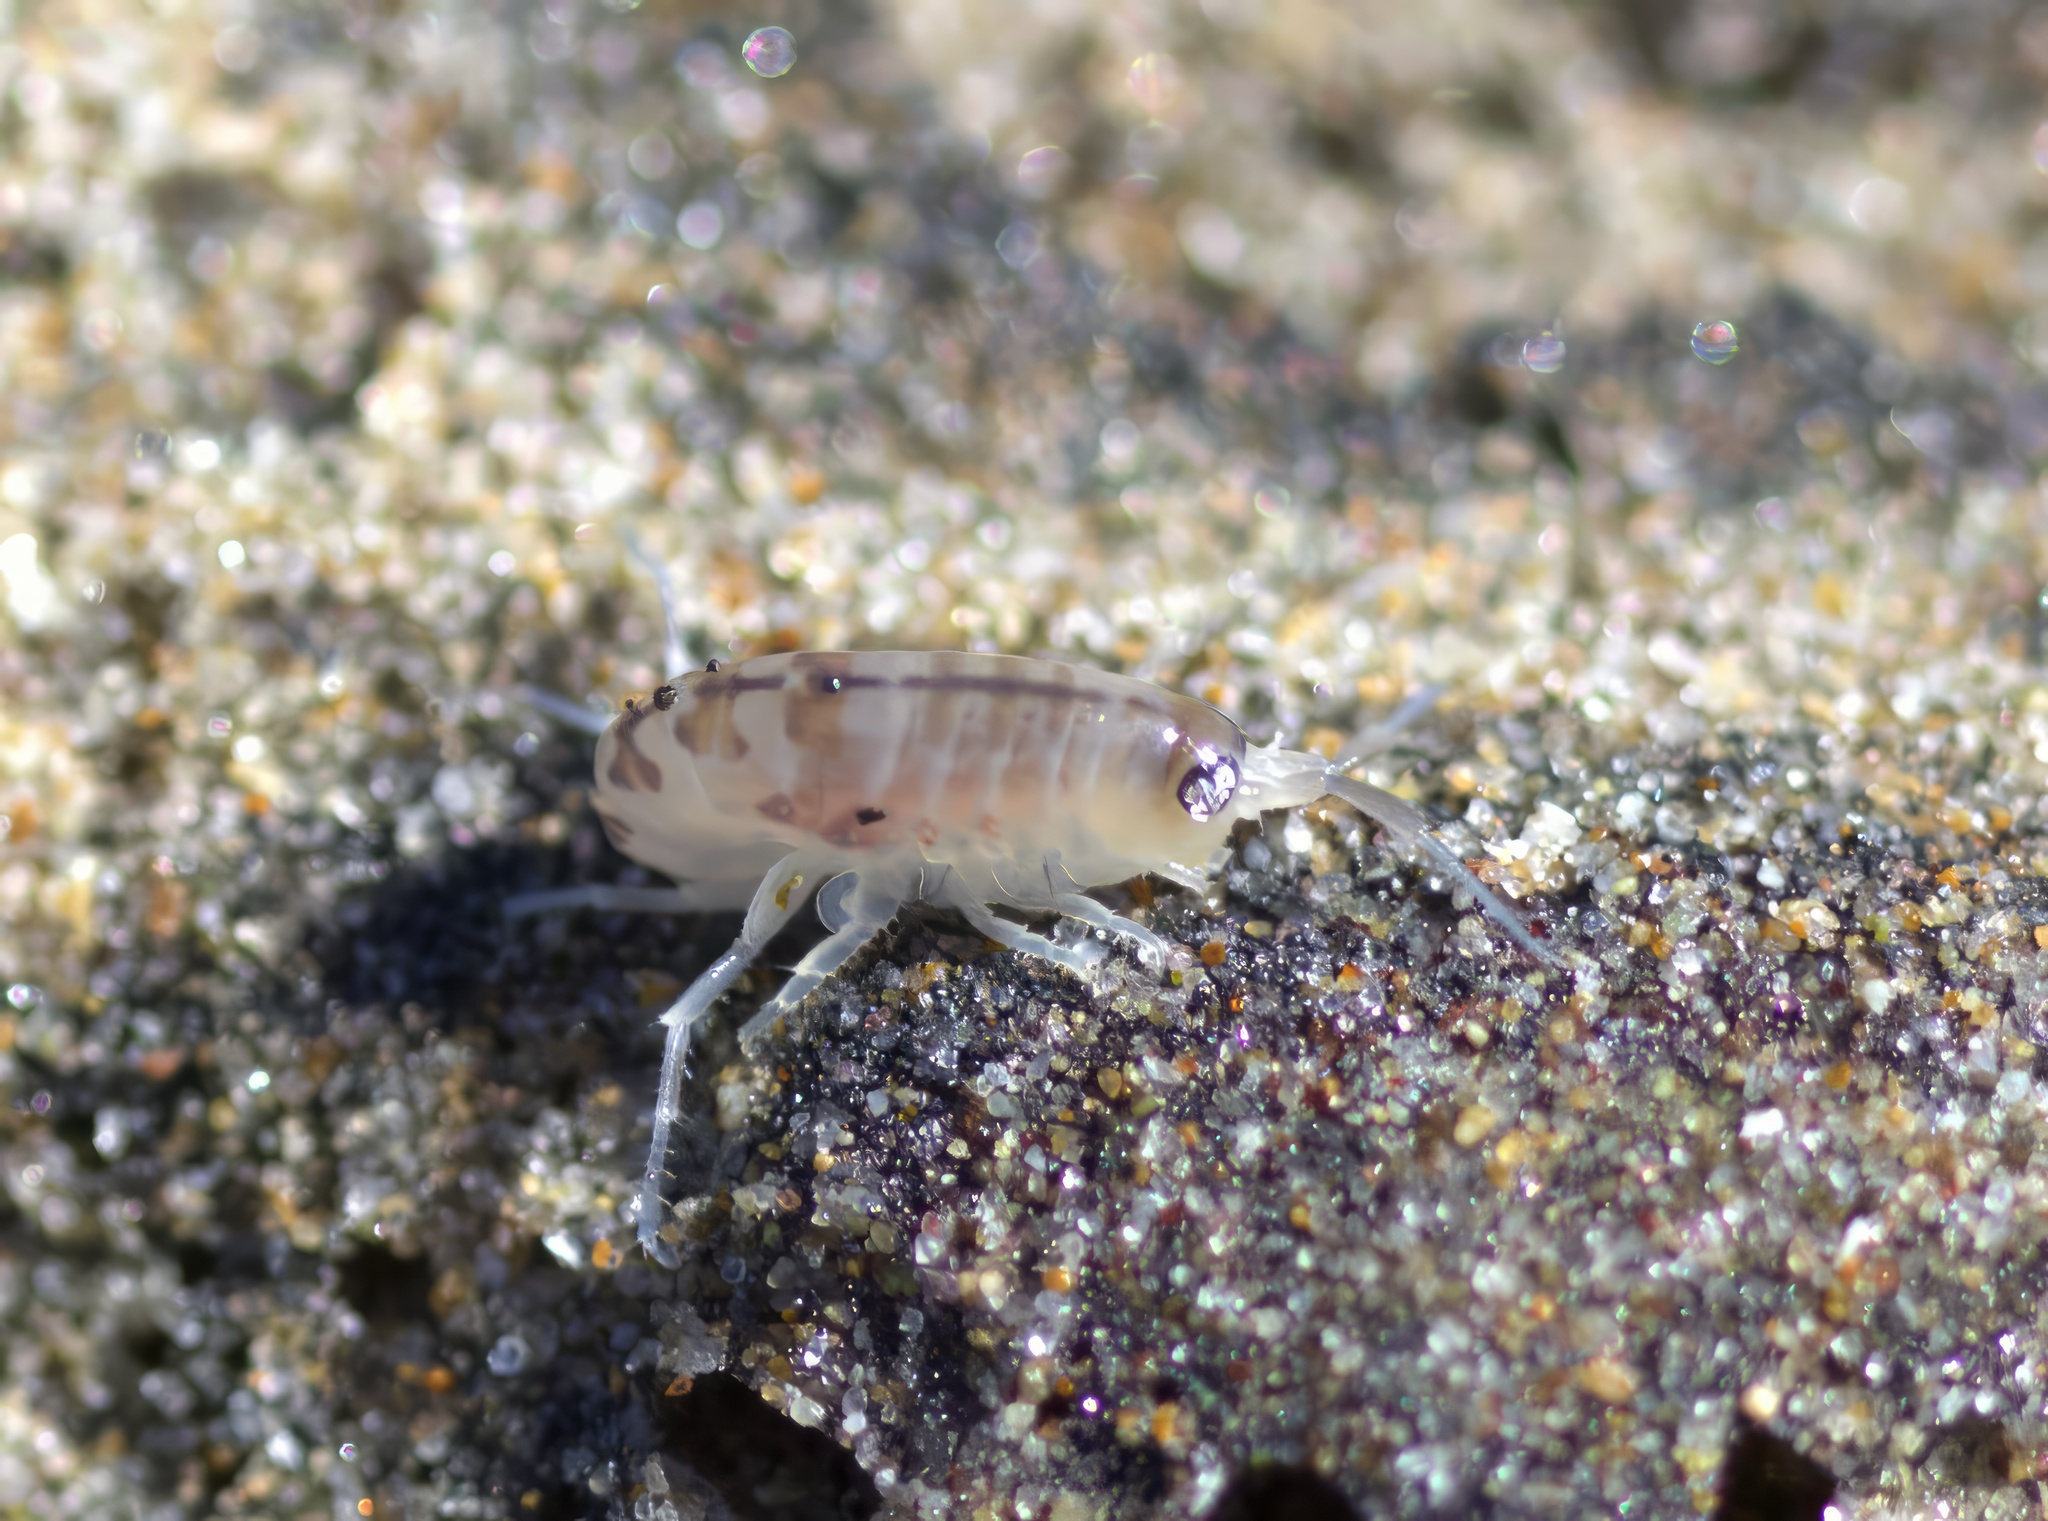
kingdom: Animalia
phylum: Arthropoda
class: Malacostraca
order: Amphipoda
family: Talitridae
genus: Megalorchestia
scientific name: Megalorchestia californiana
